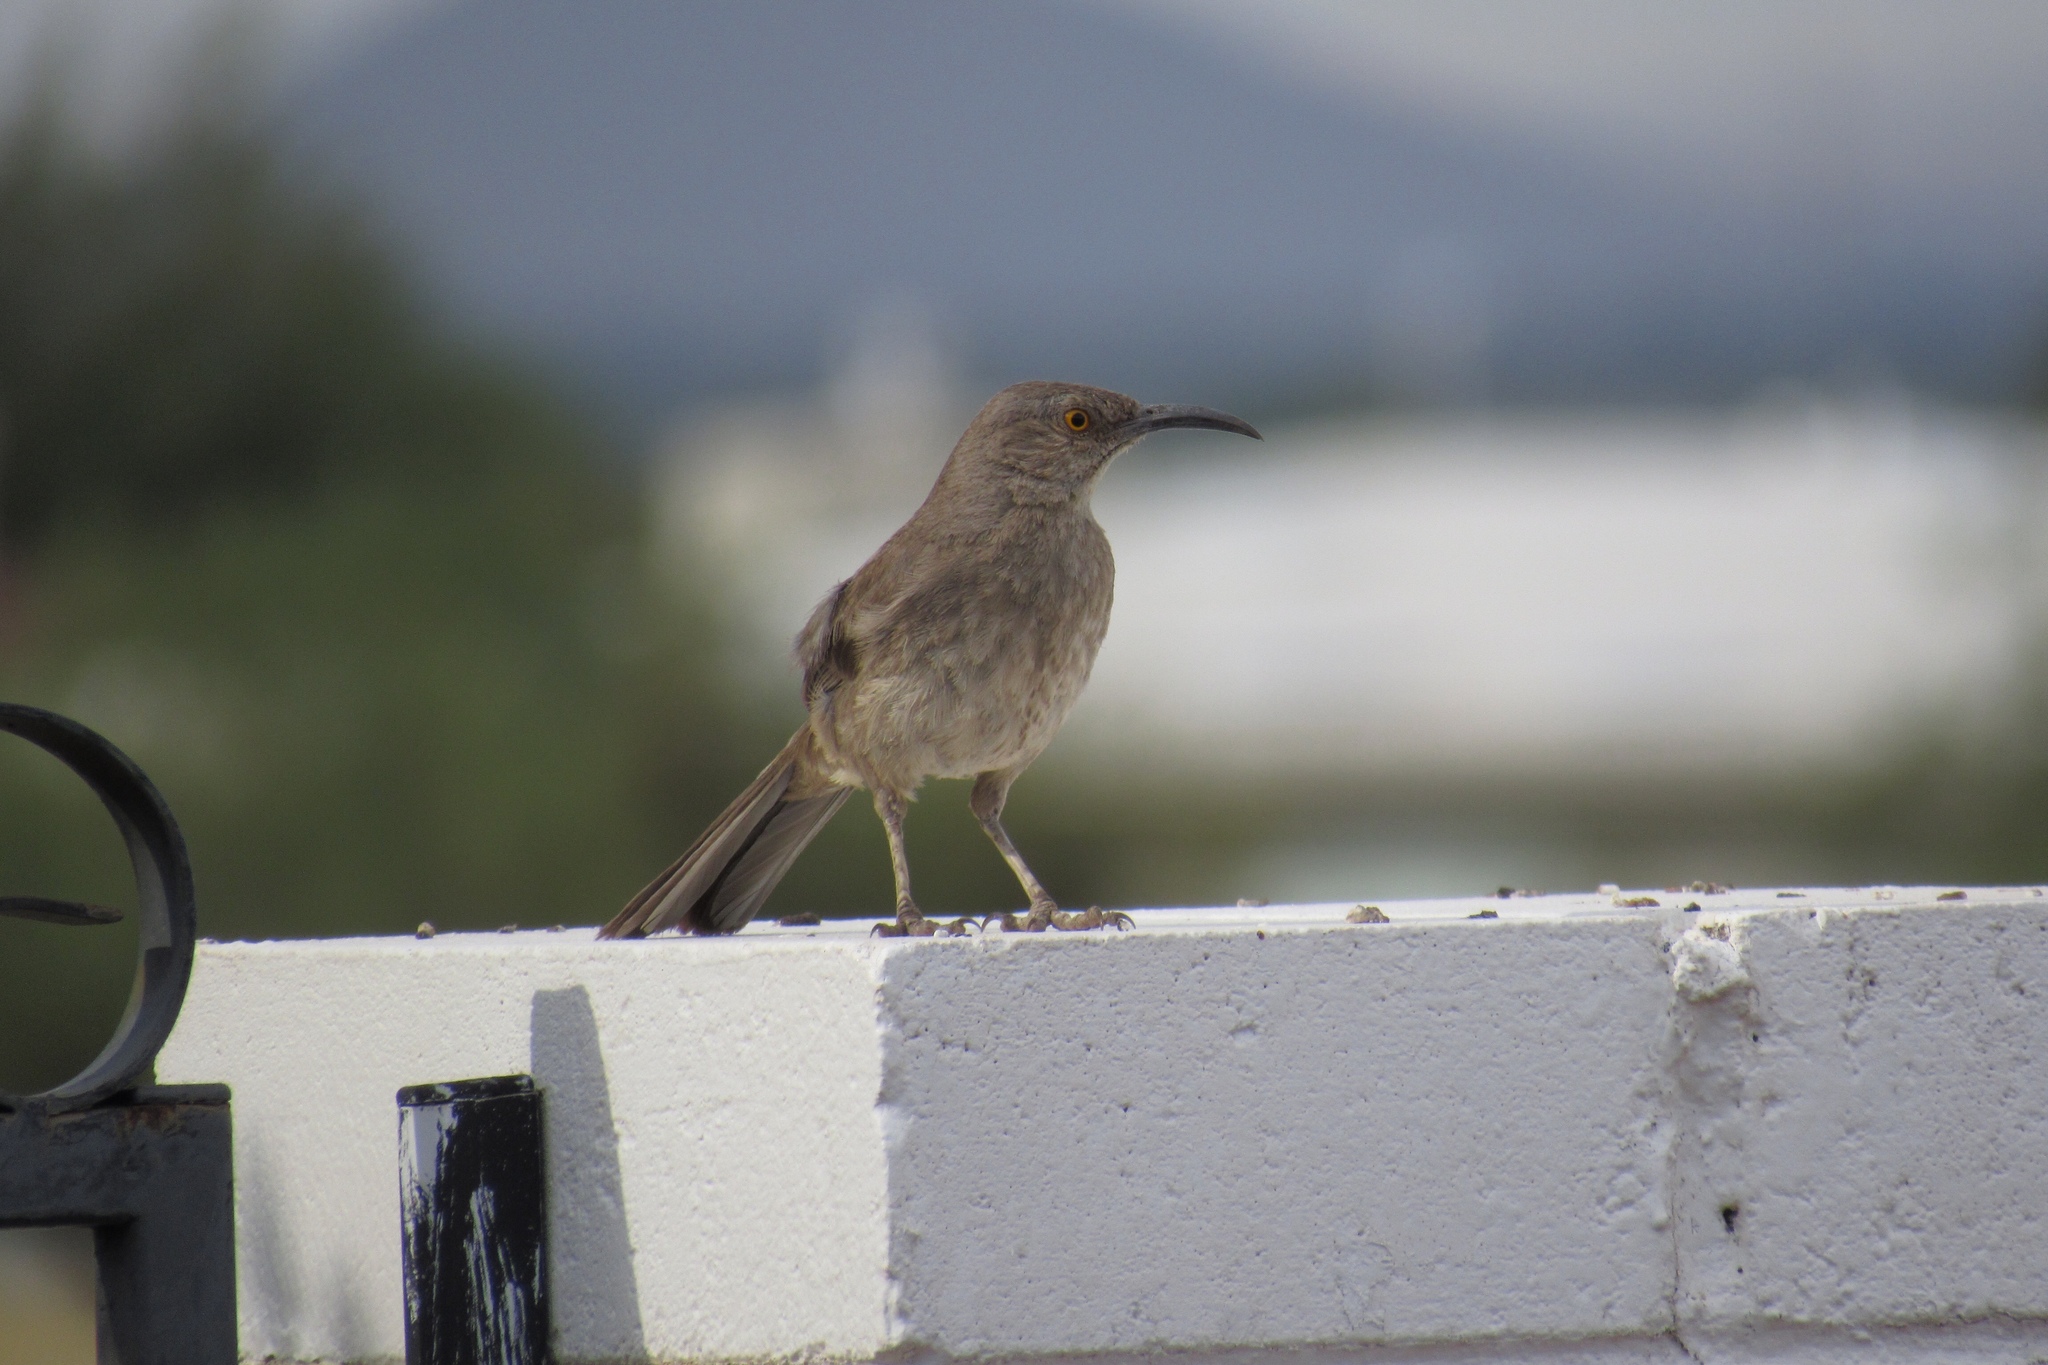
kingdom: Animalia
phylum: Chordata
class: Aves
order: Passeriformes
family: Mimidae
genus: Toxostoma
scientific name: Toxostoma curvirostre
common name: Curve-billed thrasher
